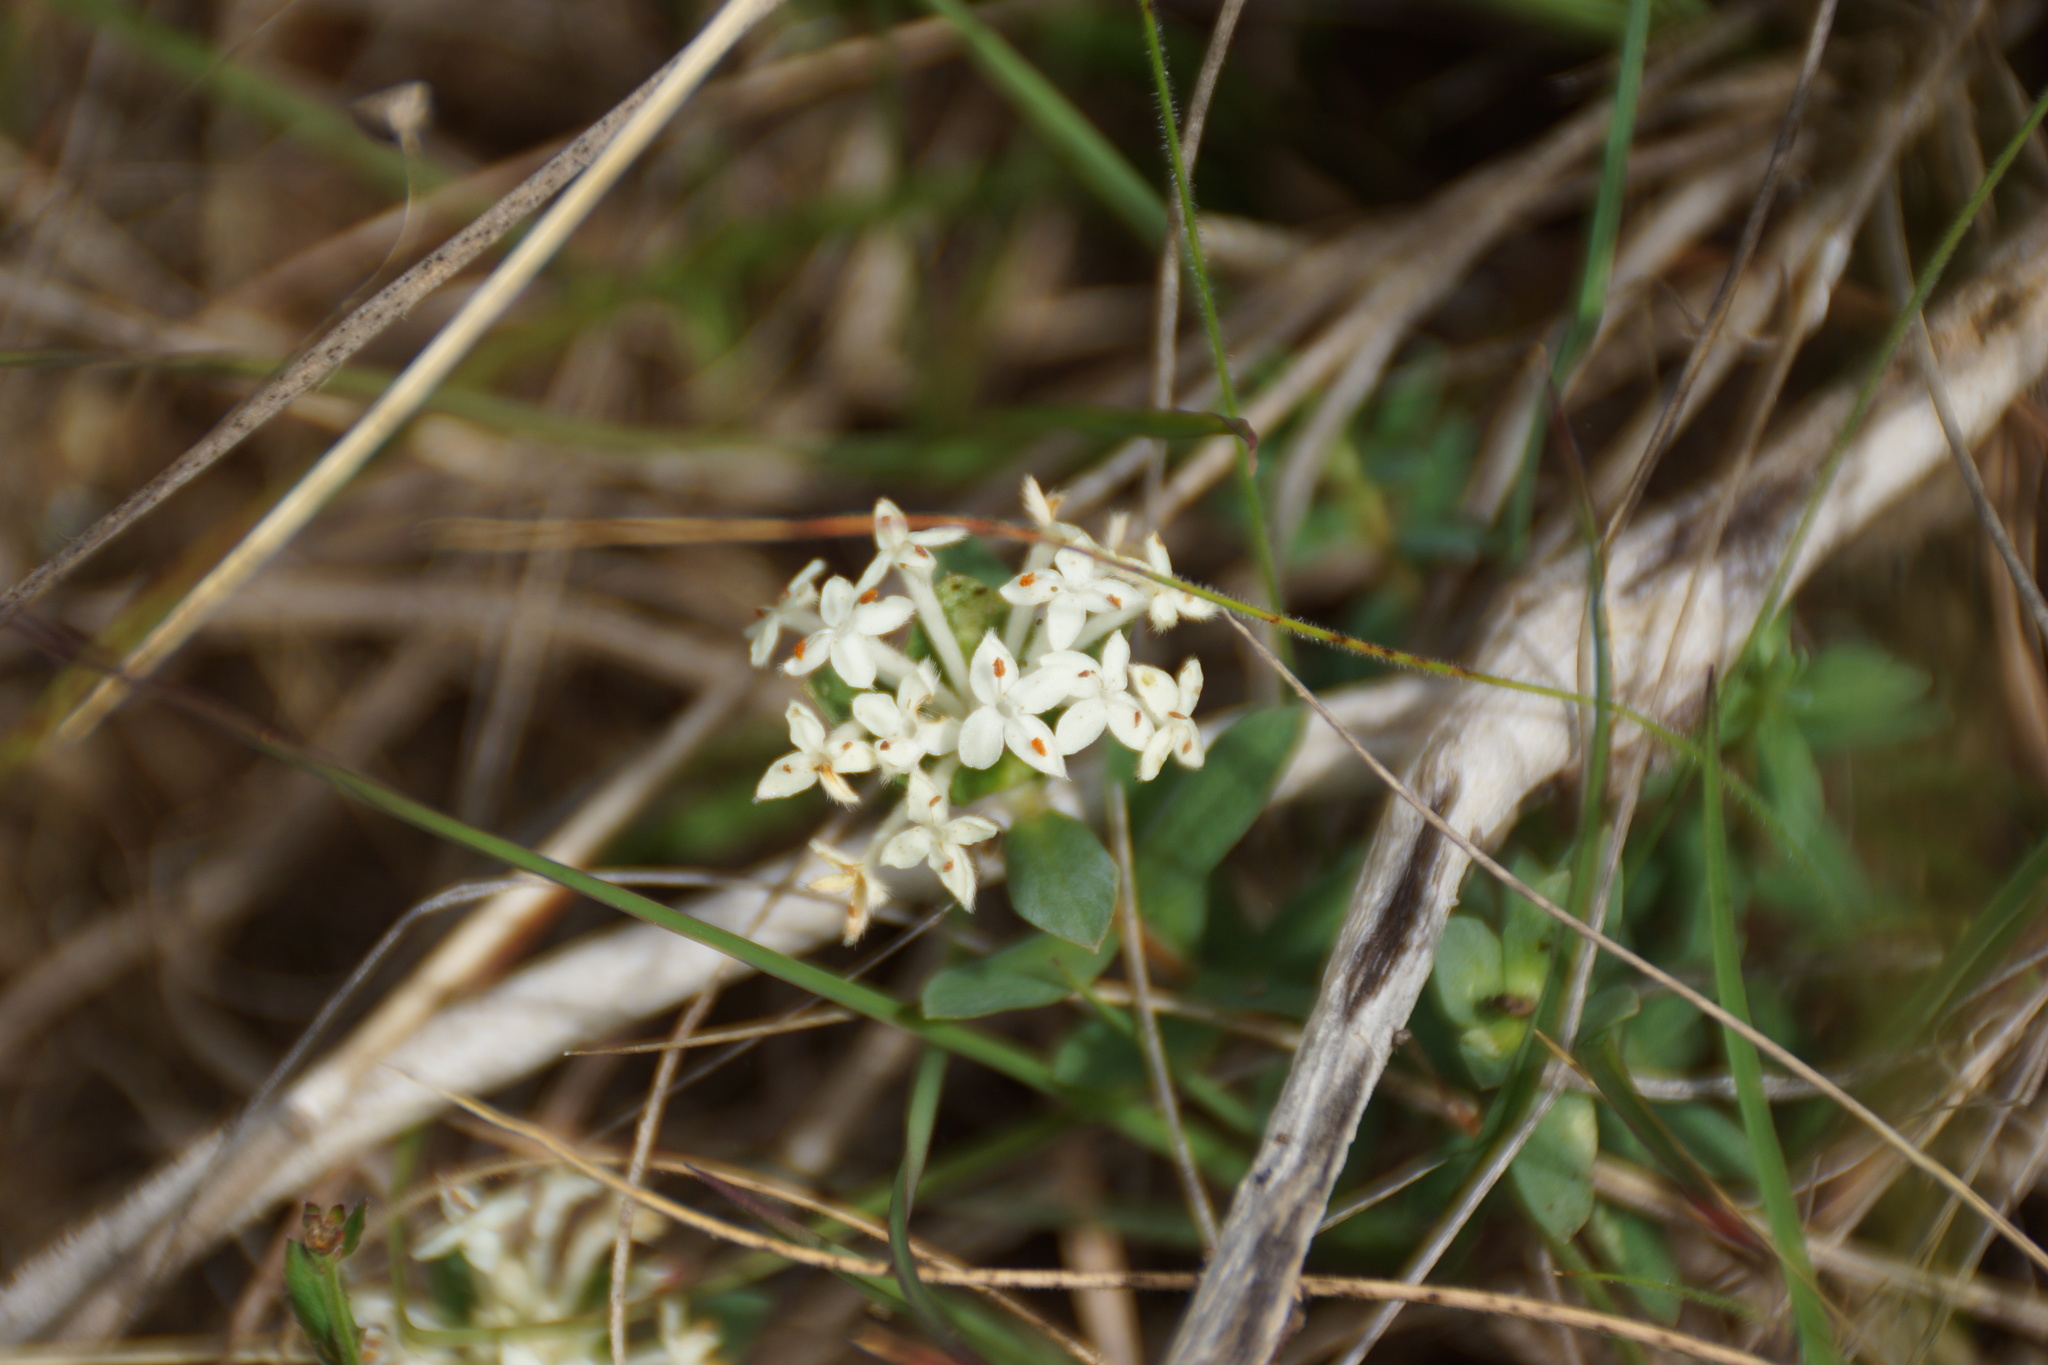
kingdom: Plantae
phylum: Tracheophyta
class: Magnoliopsida
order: Malvales
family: Thymelaeaceae
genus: Pimelea
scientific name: Pimelea humilis
